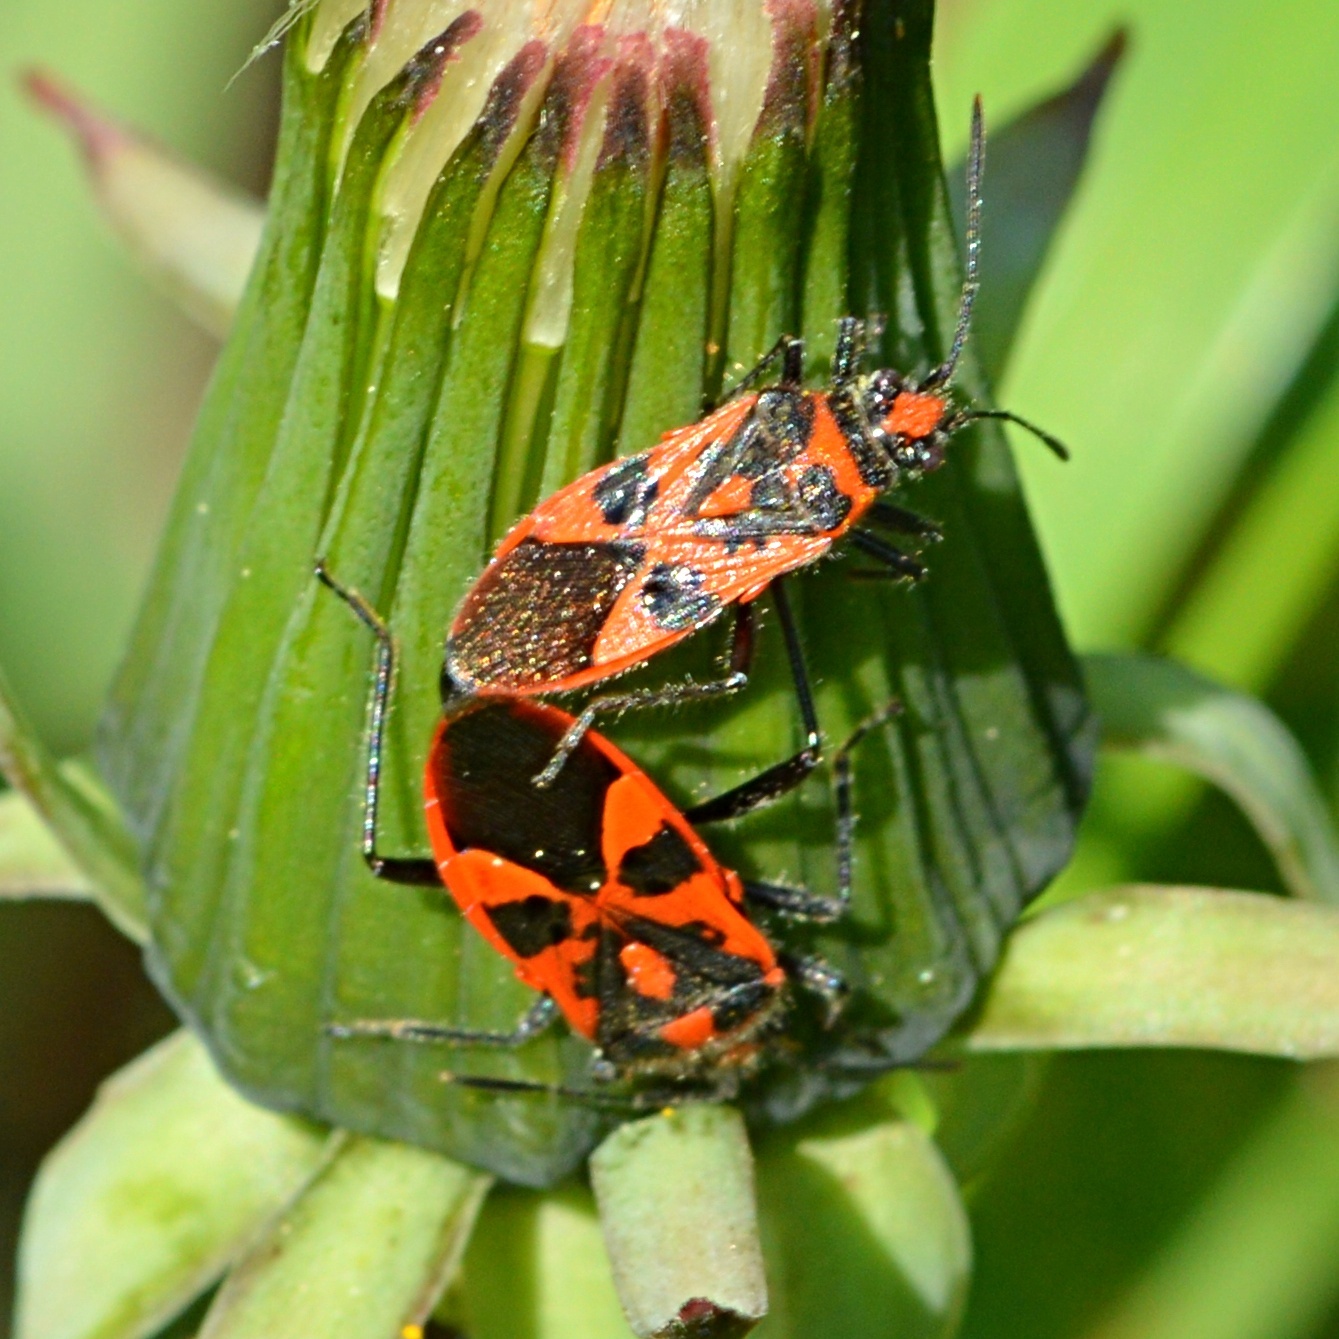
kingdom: Animalia
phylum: Arthropoda
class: Insecta
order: Hemiptera
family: Rhopalidae
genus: Corizus
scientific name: Corizus hyoscyami
